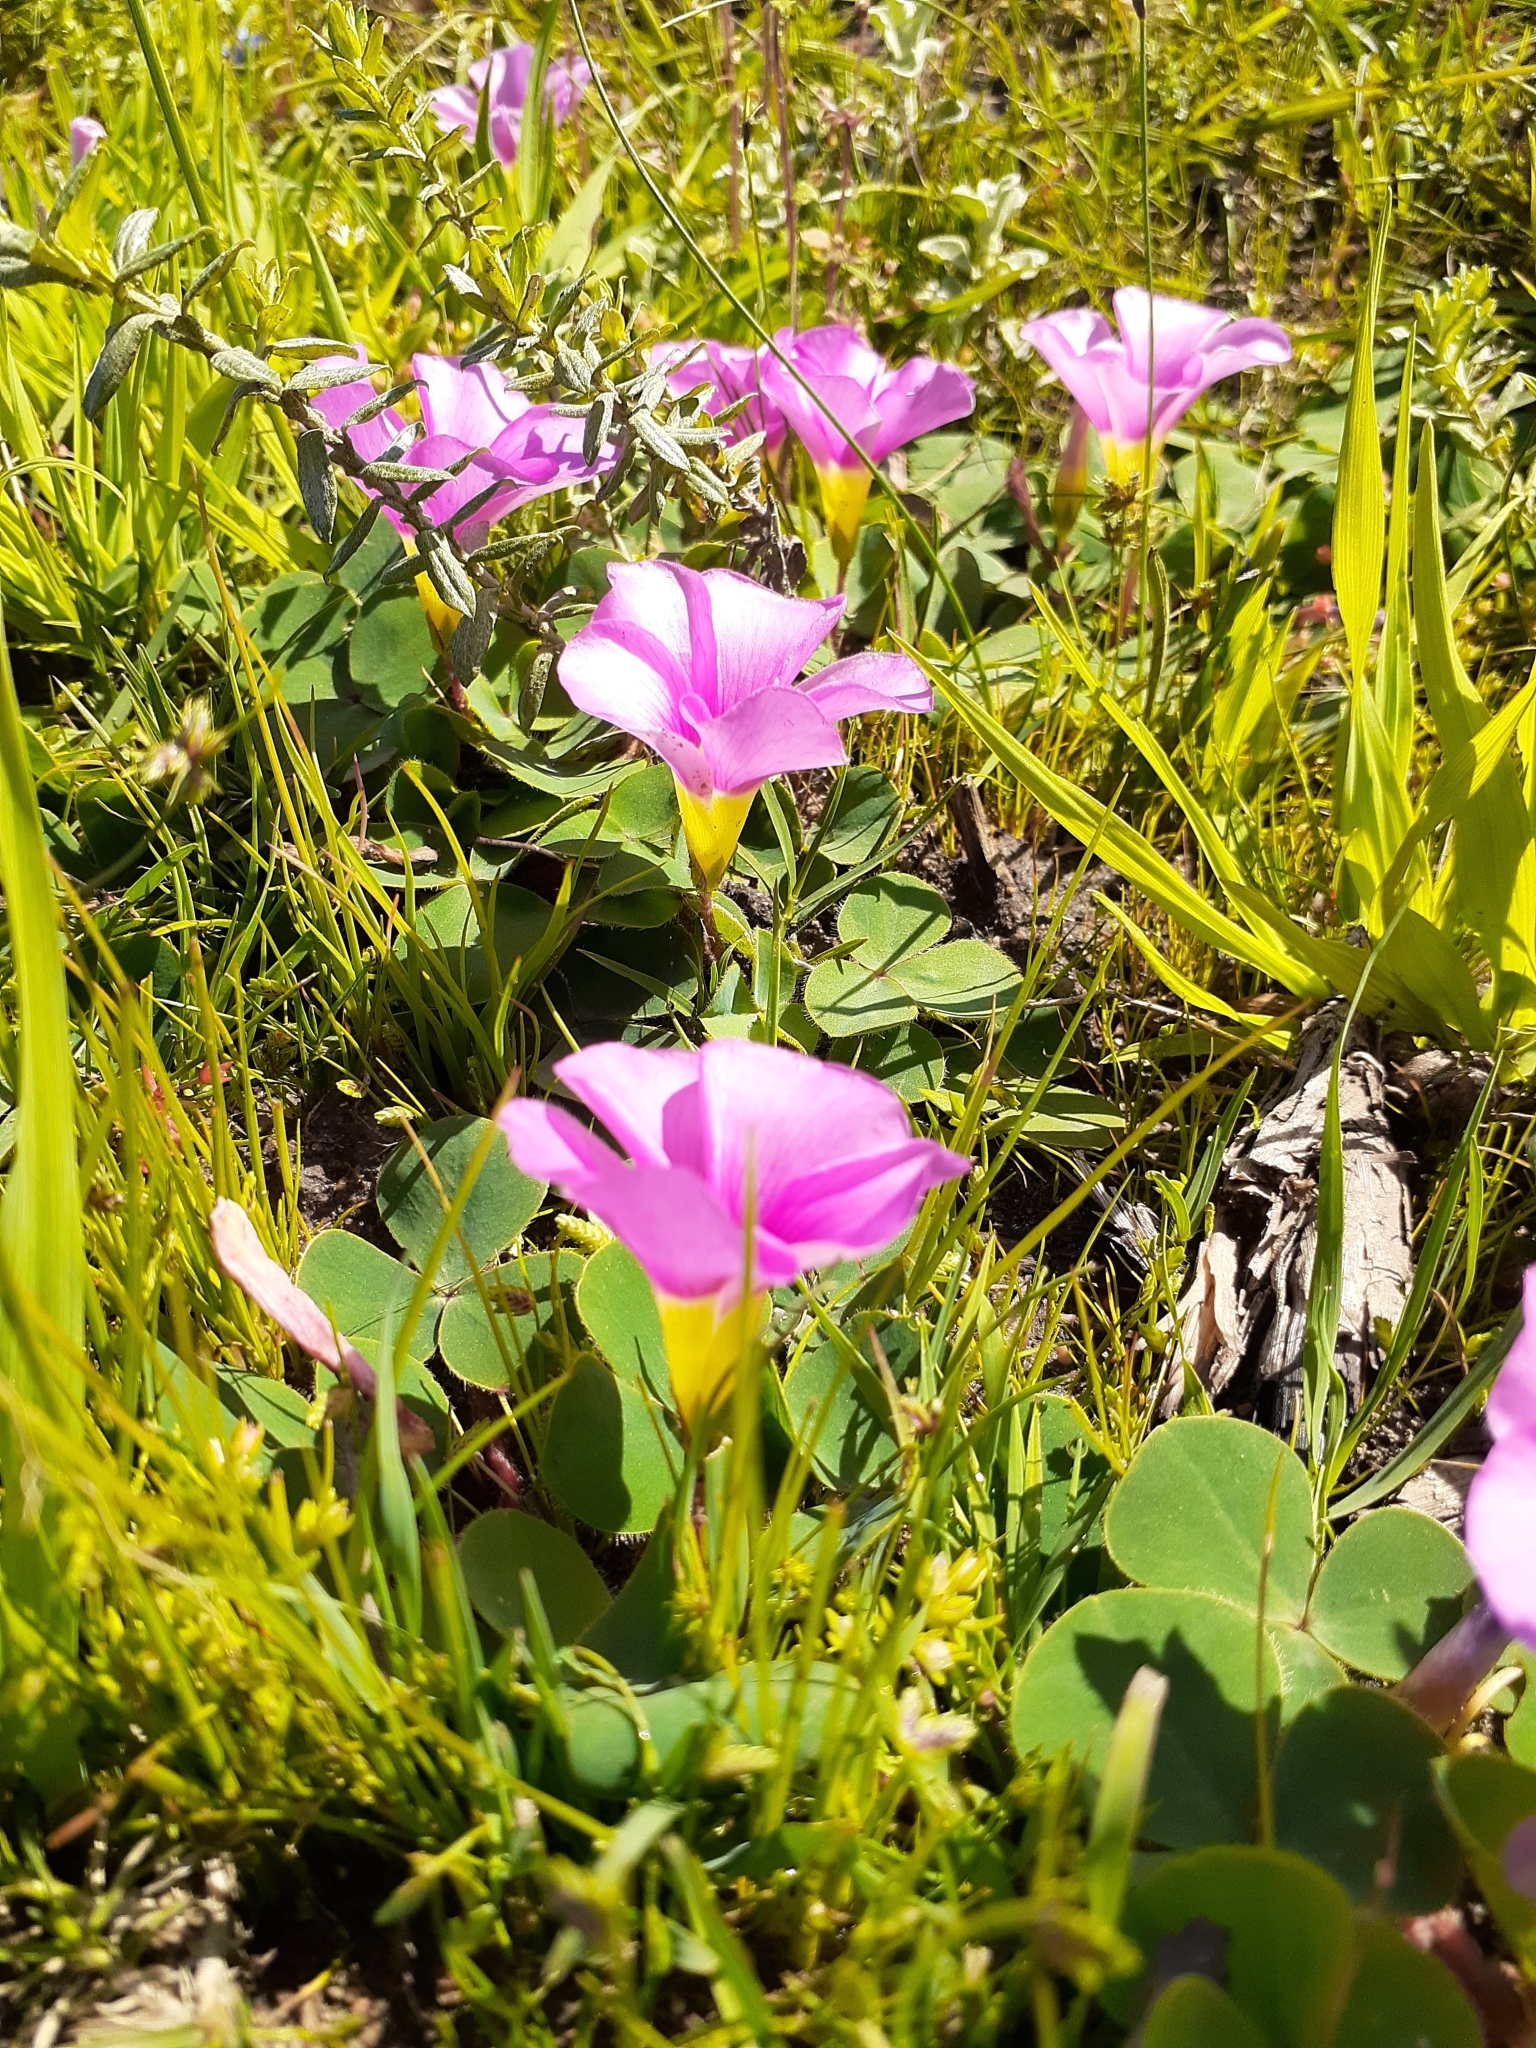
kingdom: Plantae
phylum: Tracheophyta
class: Magnoliopsida
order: Oxalidales
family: Oxalidaceae
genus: Oxalis
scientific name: Oxalis purpurea
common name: Purple woodsorrel
